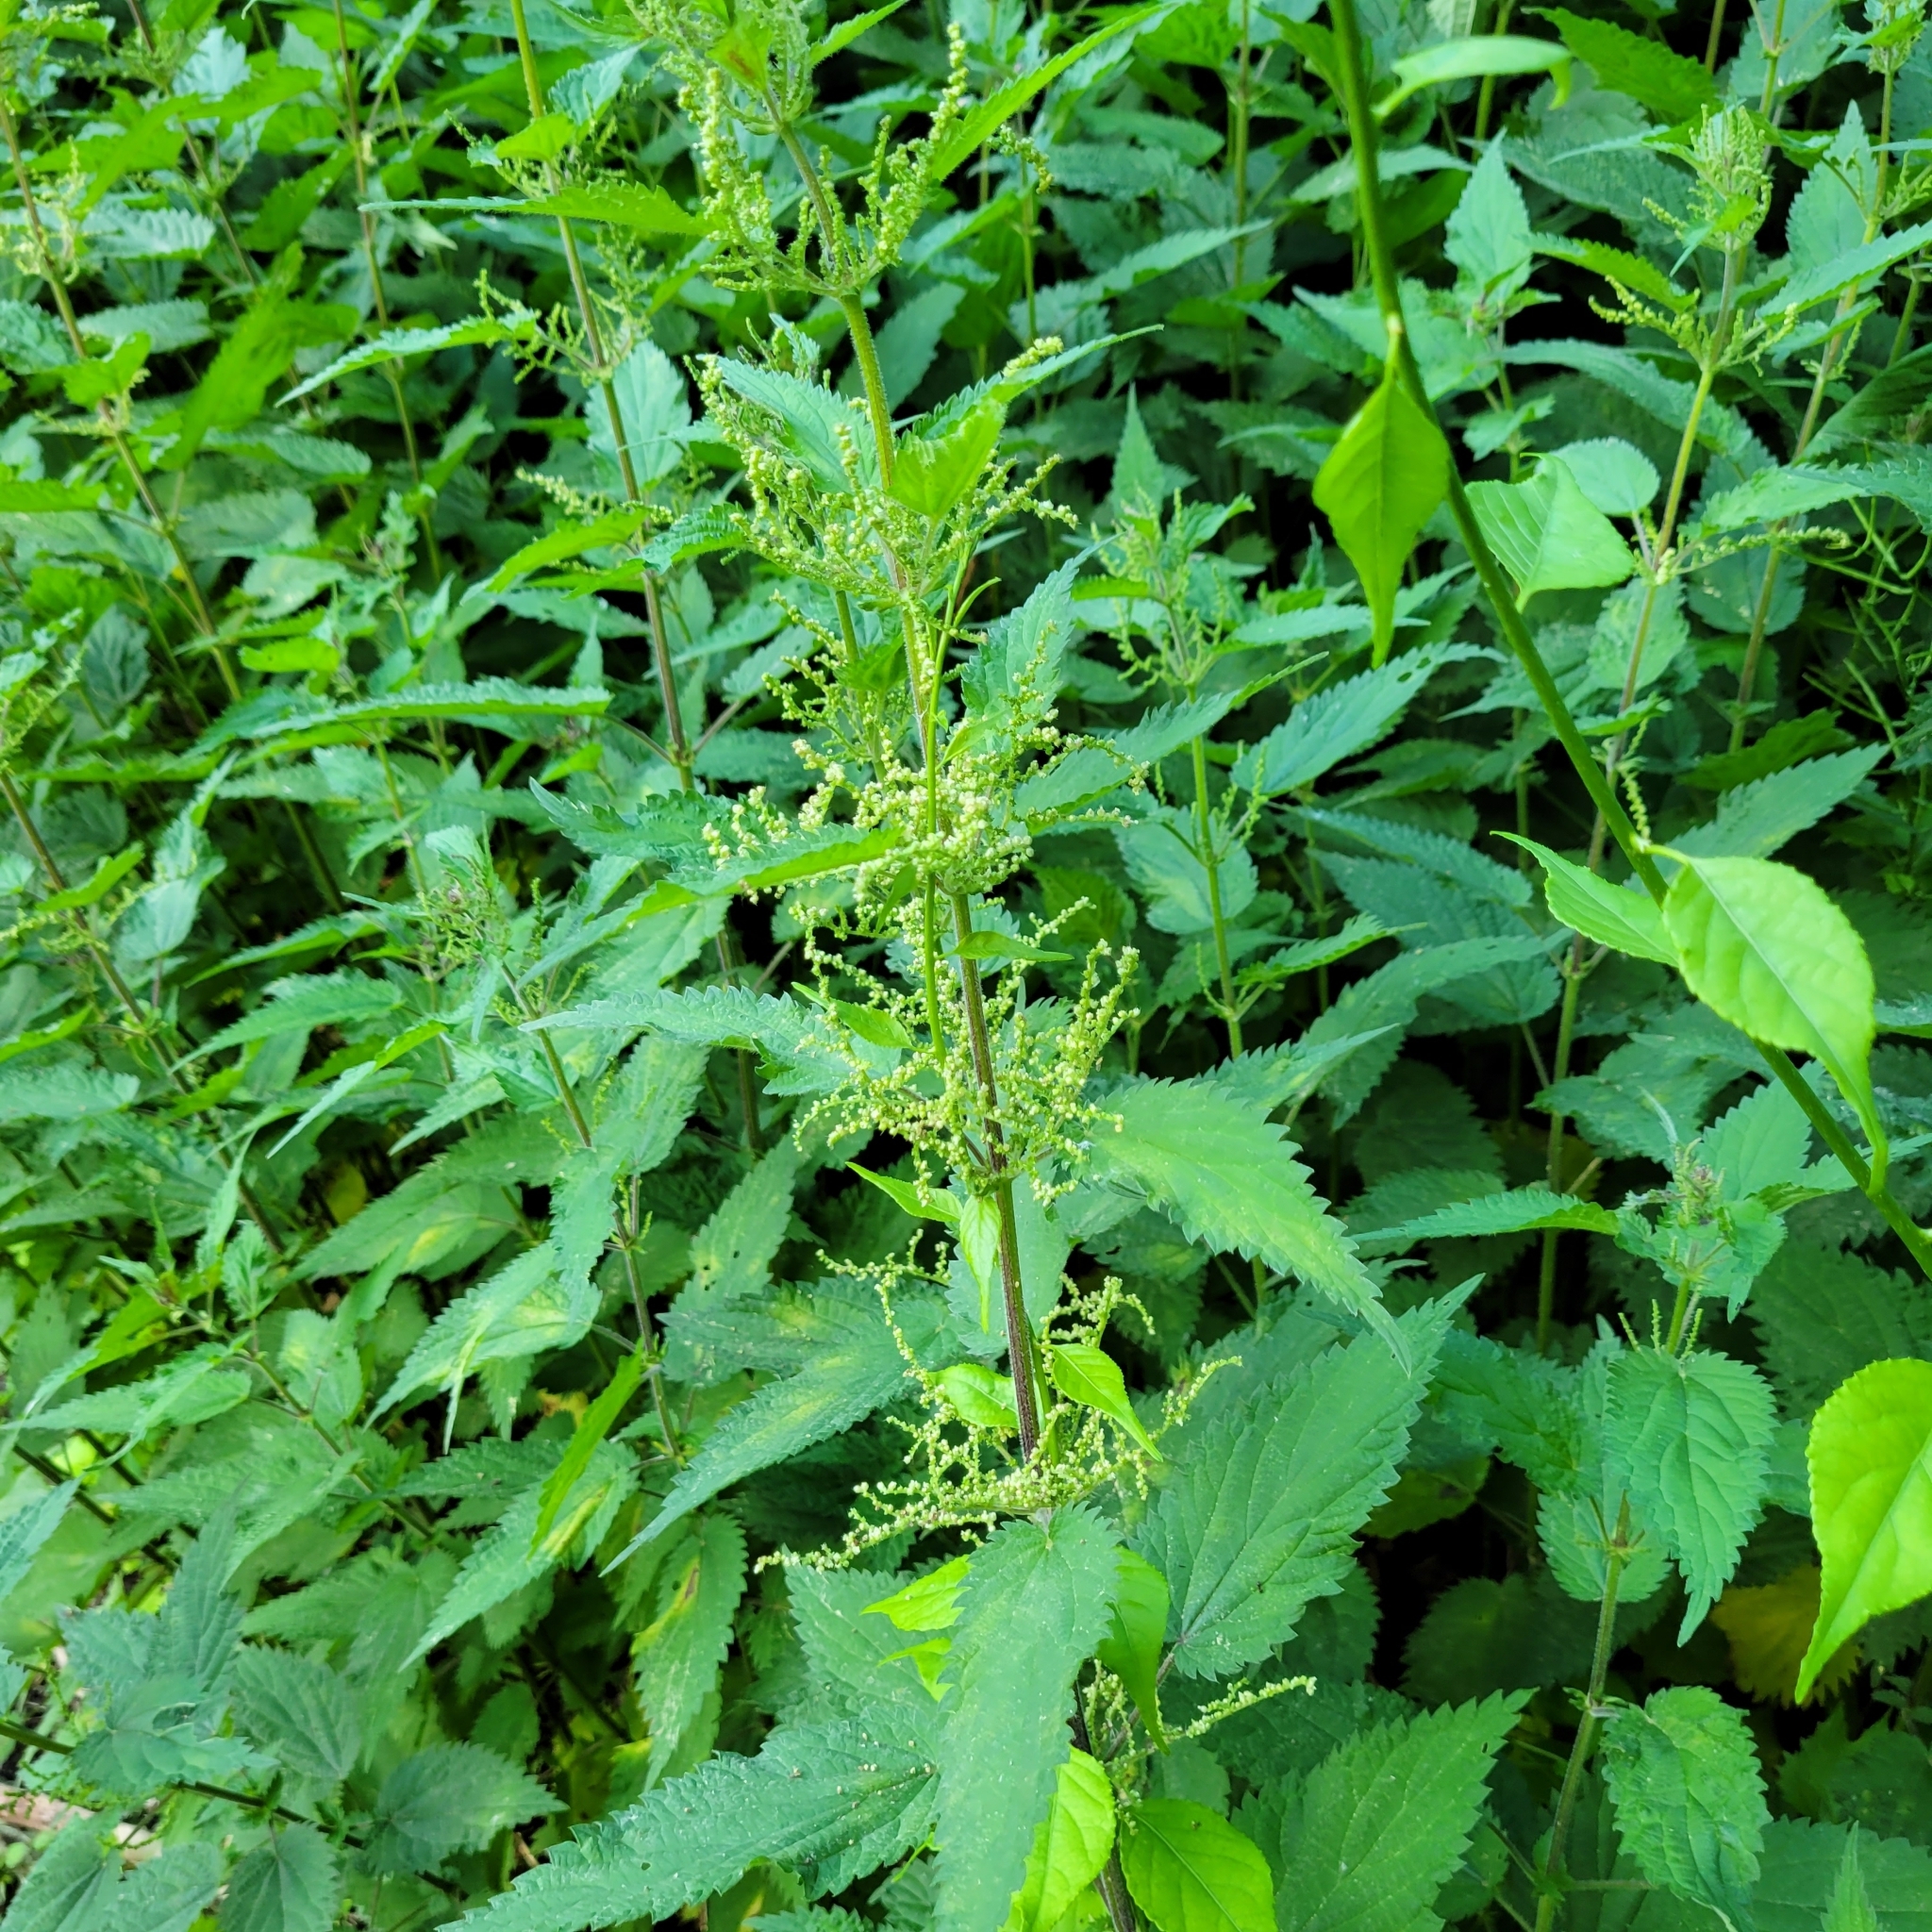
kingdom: Plantae
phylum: Tracheophyta
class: Magnoliopsida
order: Rosales
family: Urticaceae
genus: Urtica
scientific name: Urtica dioica
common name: Common nettle
